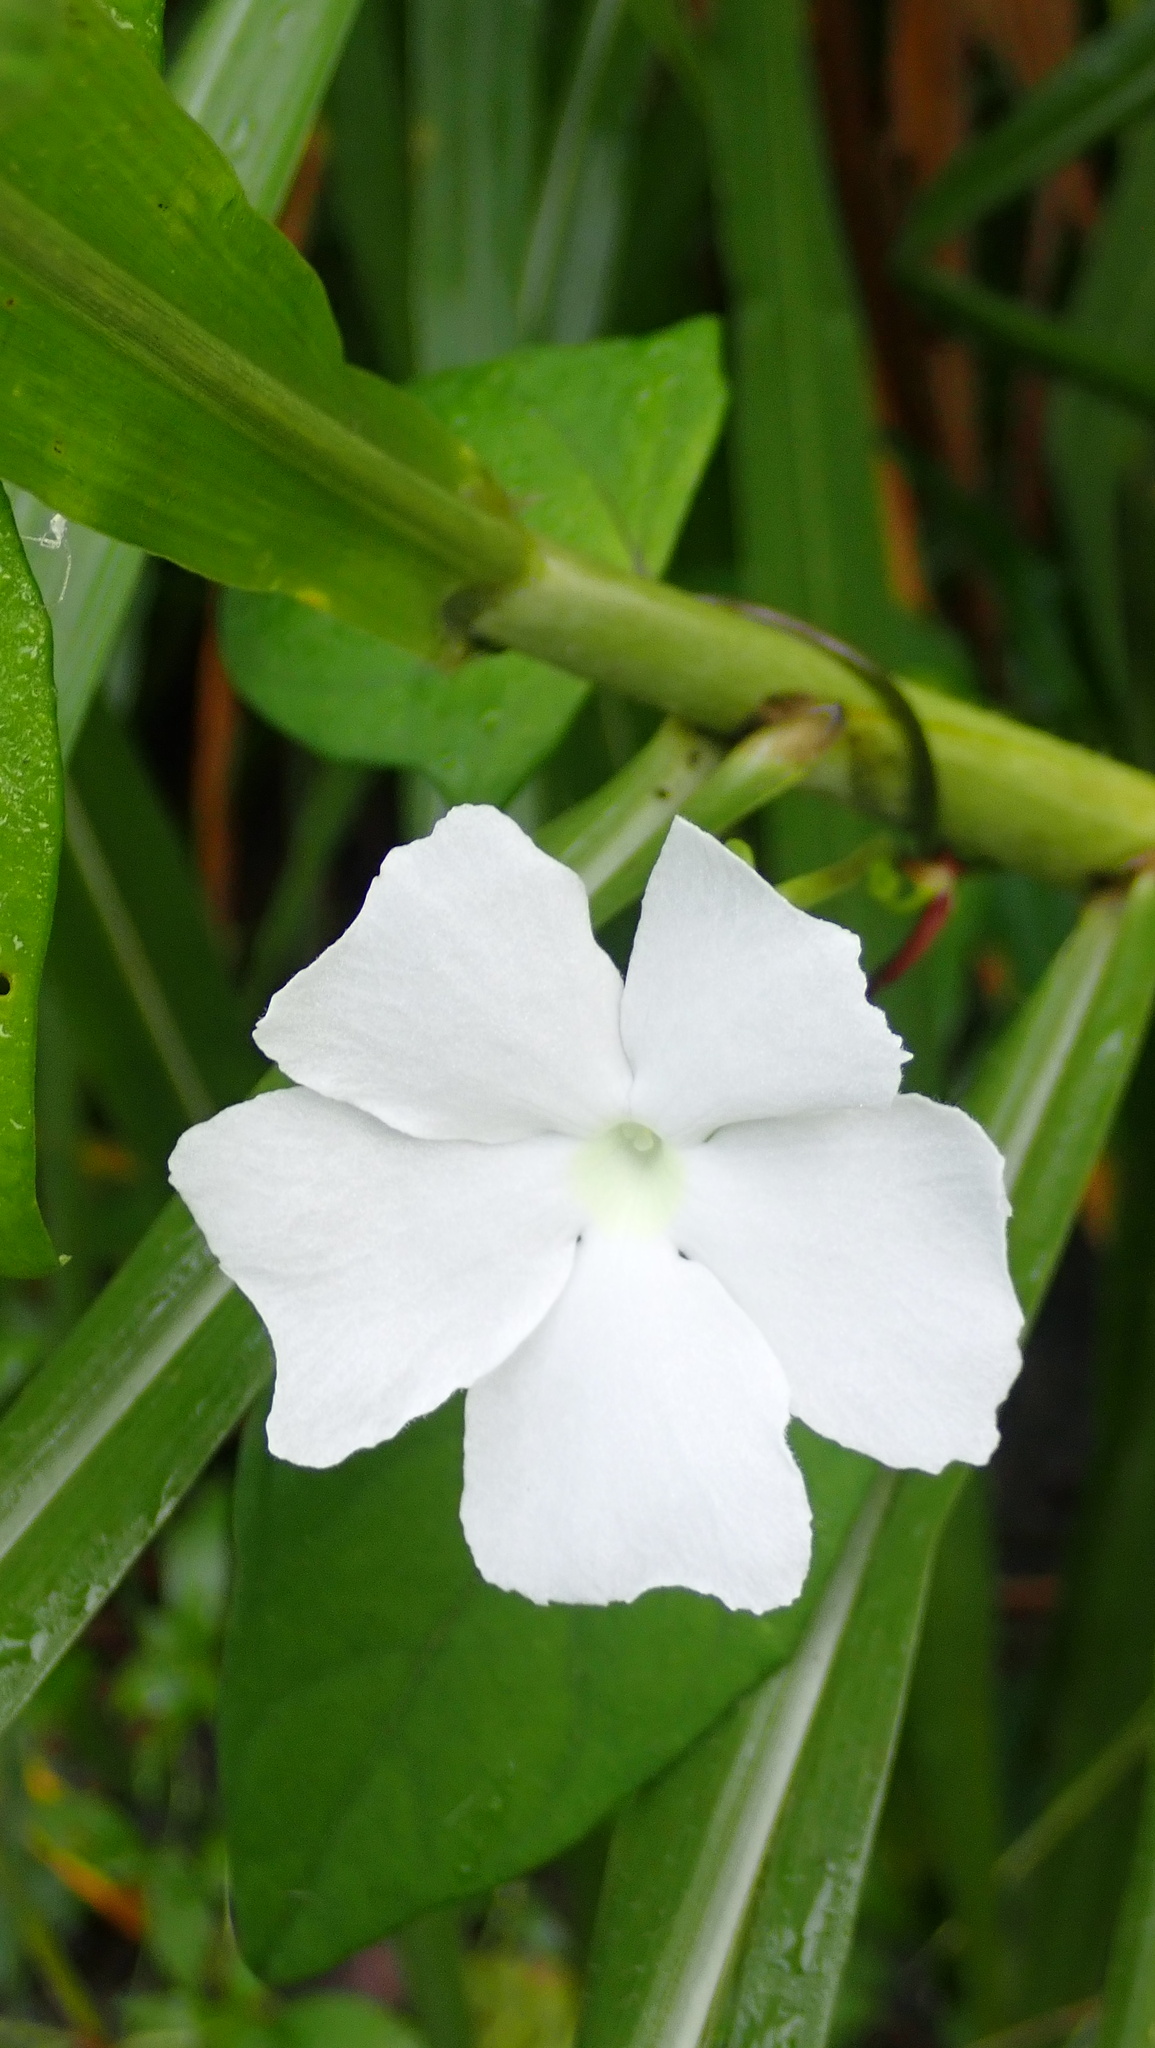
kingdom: Plantae
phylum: Tracheophyta
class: Magnoliopsida
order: Lamiales
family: Acanthaceae
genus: Thunbergia
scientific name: Thunbergia fragrans
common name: Whitelady
